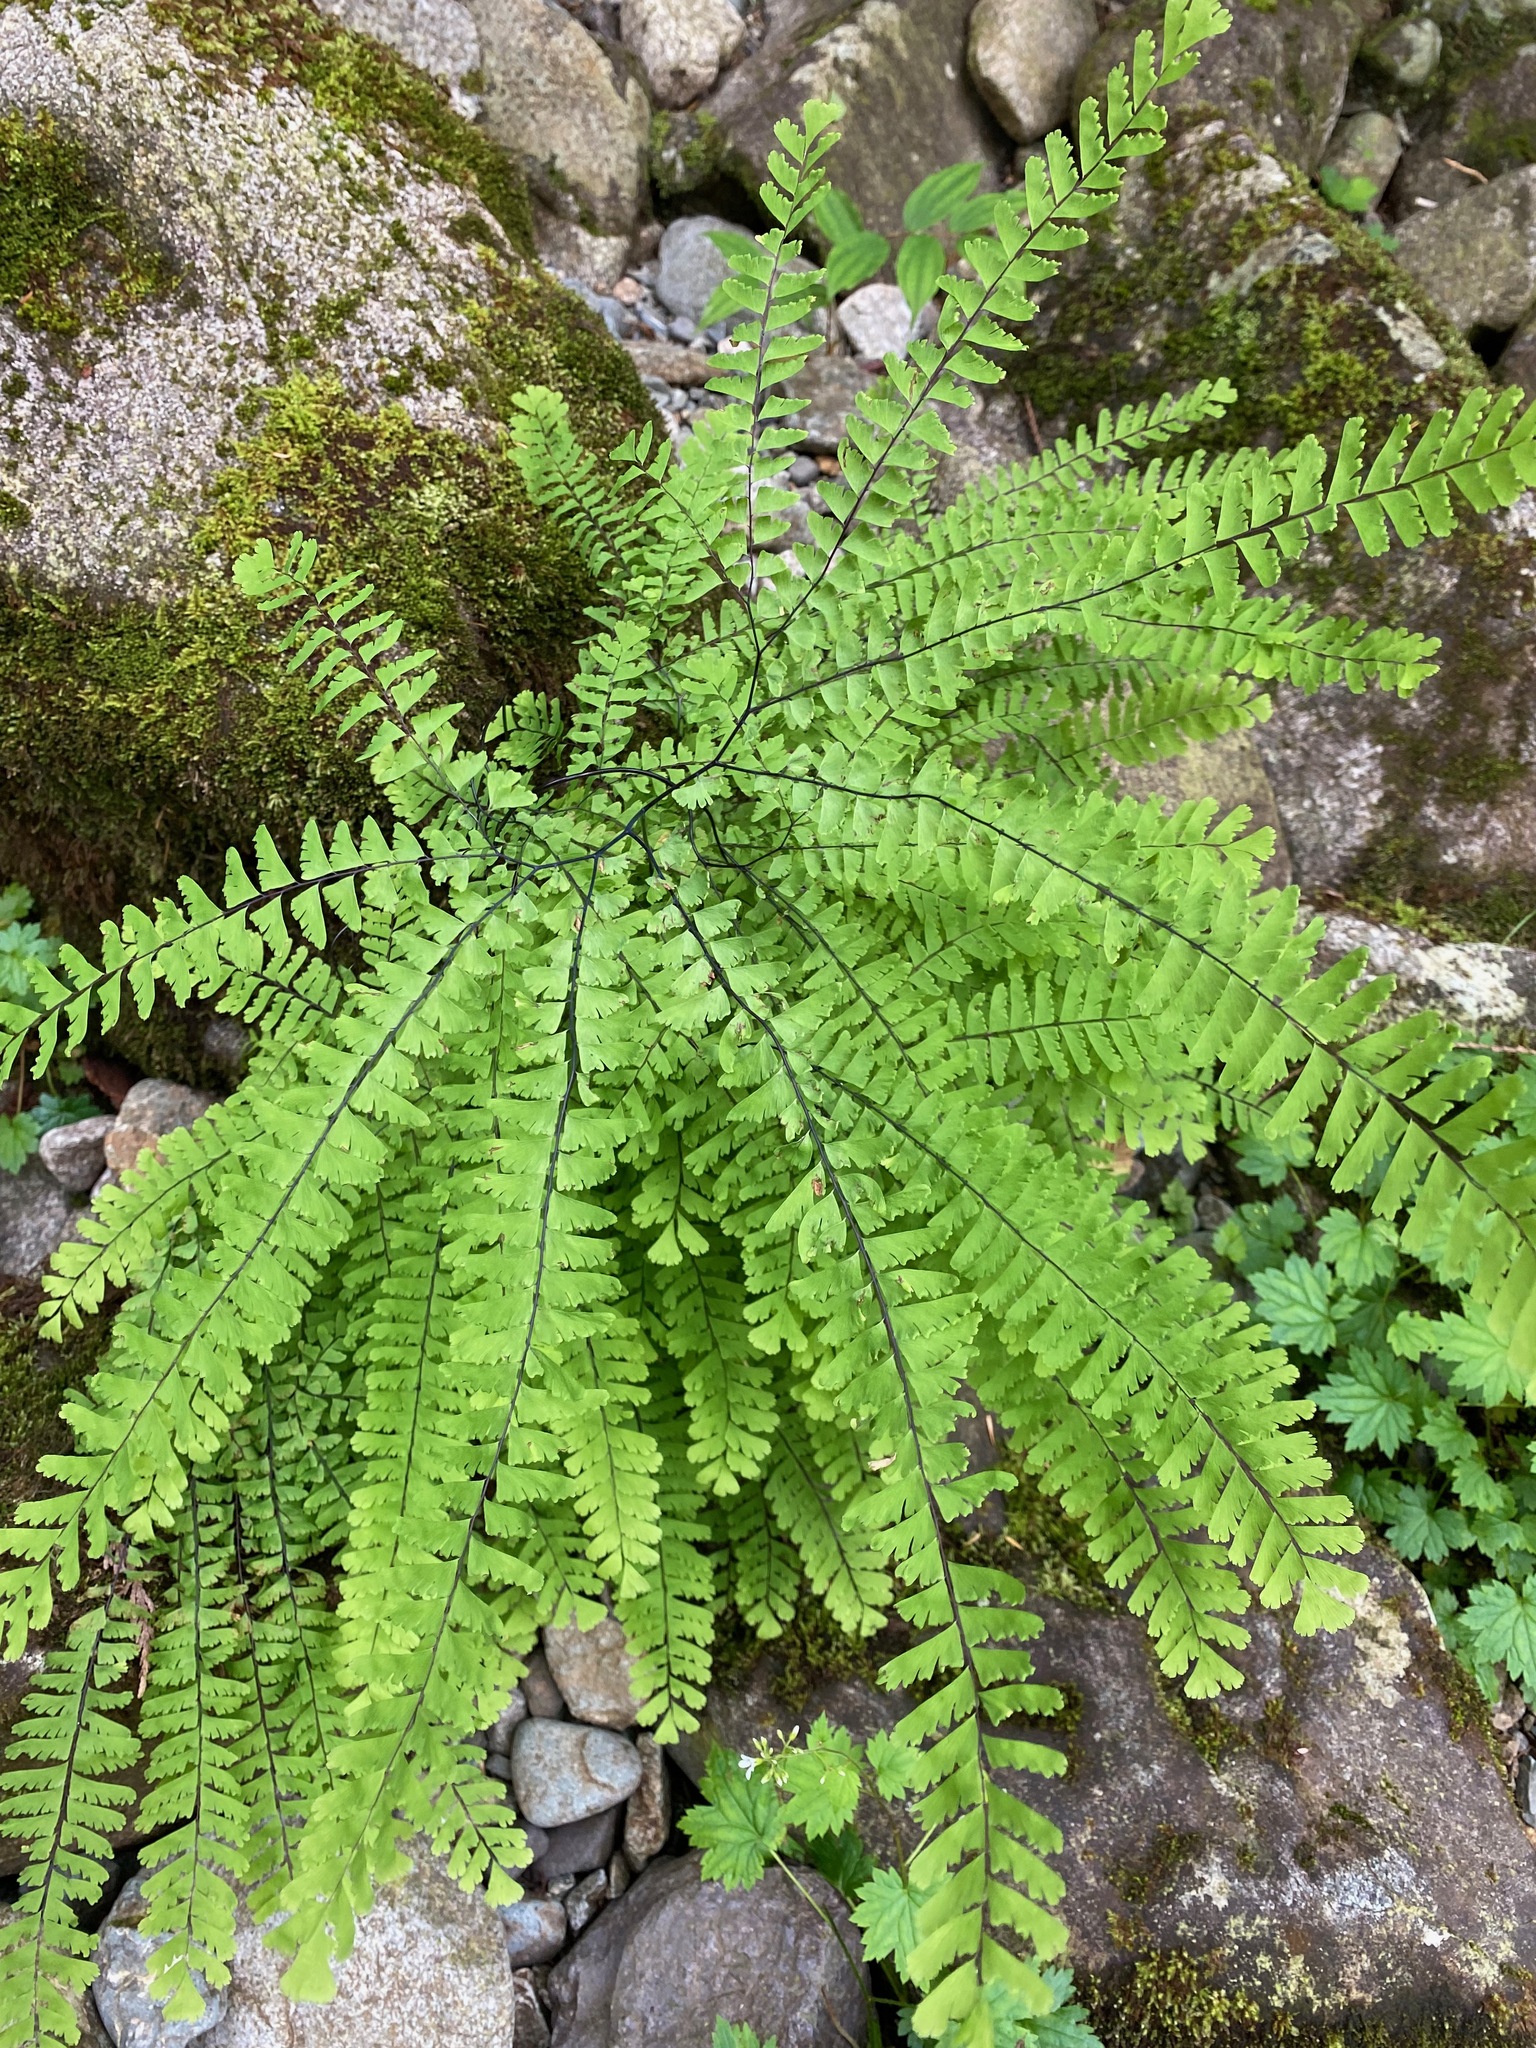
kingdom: Plantae
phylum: Tracheophyta
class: Polypodiopsida
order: Polypodiales
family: Pteridaceae
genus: Adiantum
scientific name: Adiantum aleuticum
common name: Aleutian maidenhair fern
